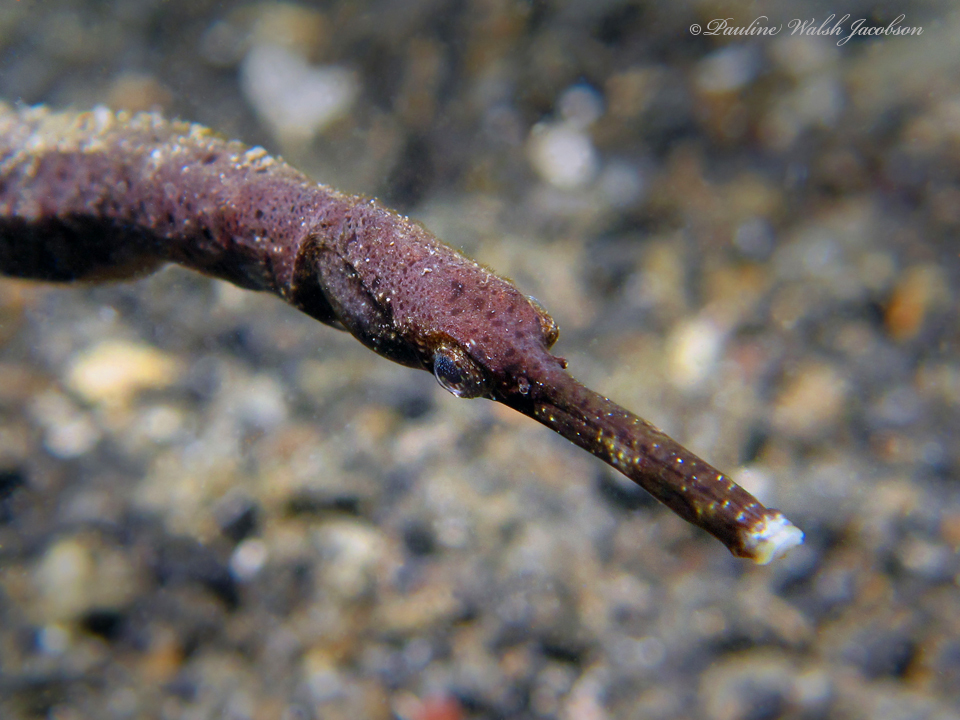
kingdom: Animalia
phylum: Chordata
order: Syngnathiformes
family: Syngnathidae
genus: Trachyrhamphus
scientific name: Trachyrhamphus bicoarctatus
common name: Double-ended pipefish
